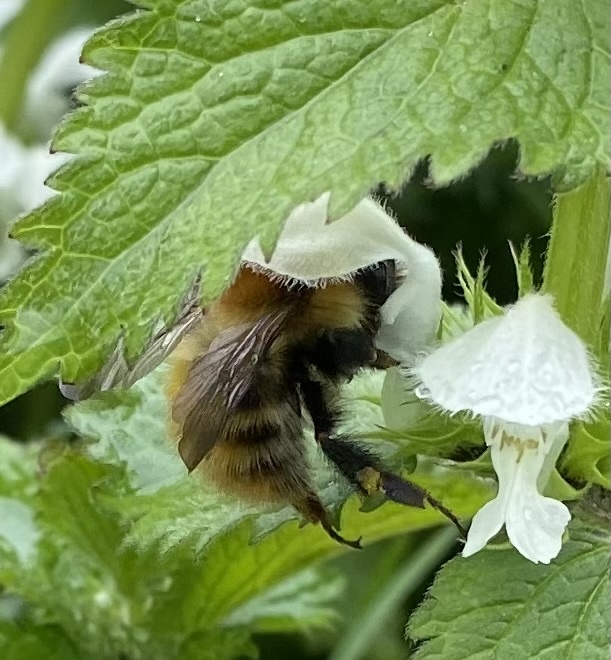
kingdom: Animalia
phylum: Arthropoda
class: Insecta
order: Hymenoptera
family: Apidae
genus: Bombus
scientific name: Bombus pascuorum
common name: Common carder bee
